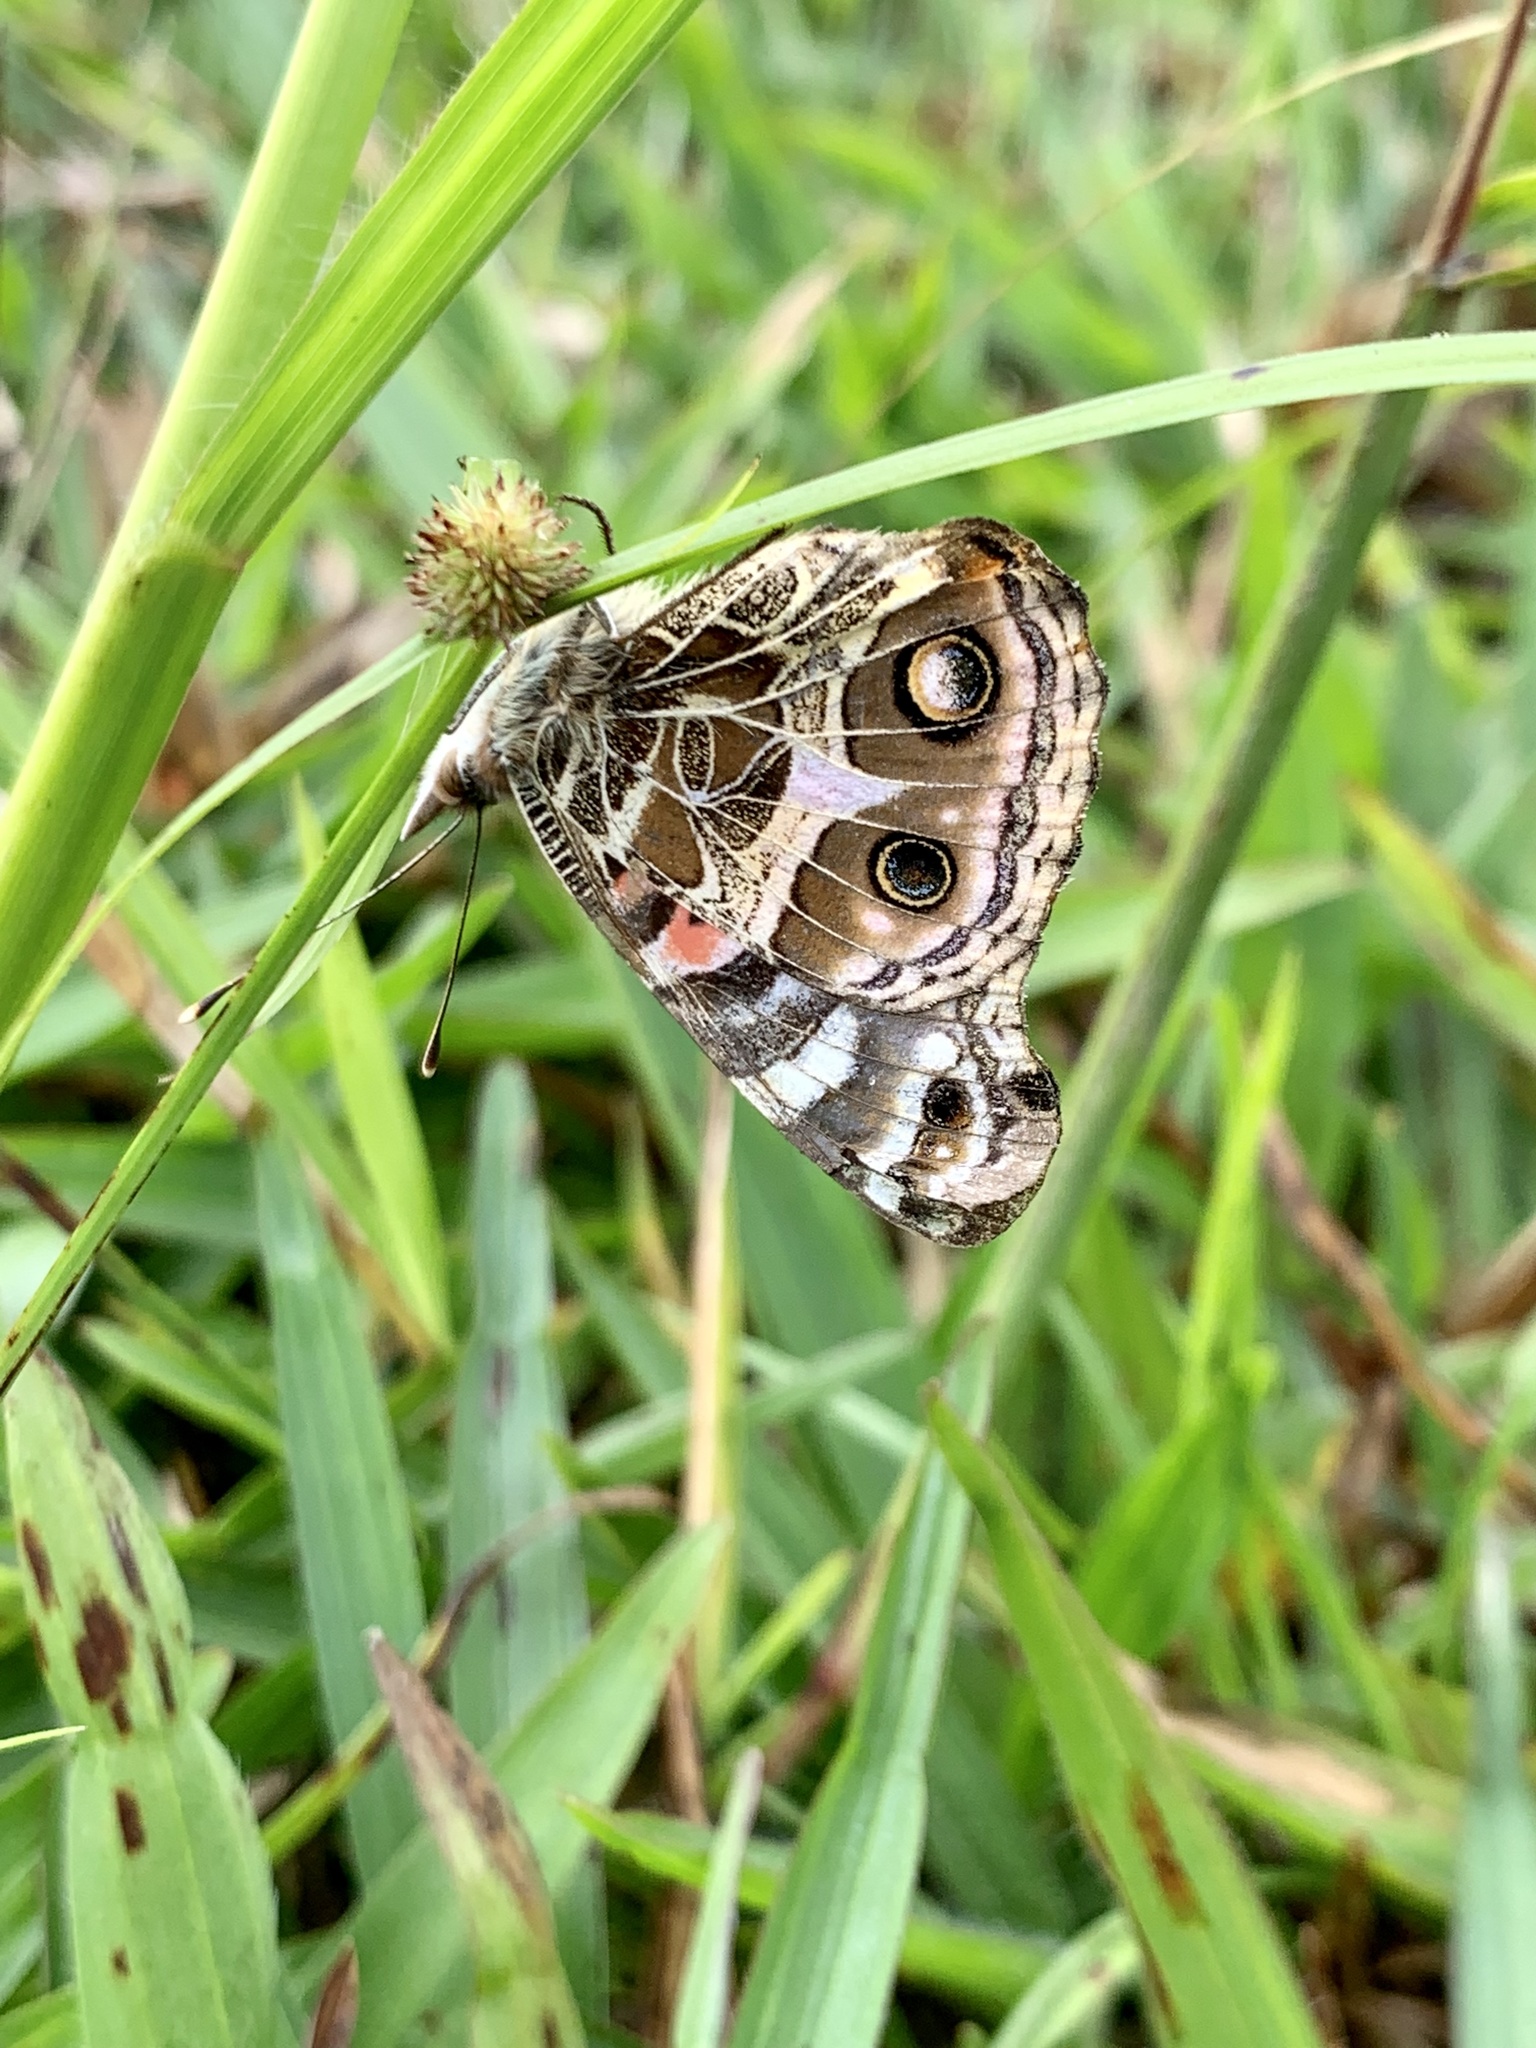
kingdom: Animalia
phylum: Arthropoda
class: Insecta
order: Lepidoptera
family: Nymphalidae
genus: Vanessa
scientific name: Vanessa braziliensis
